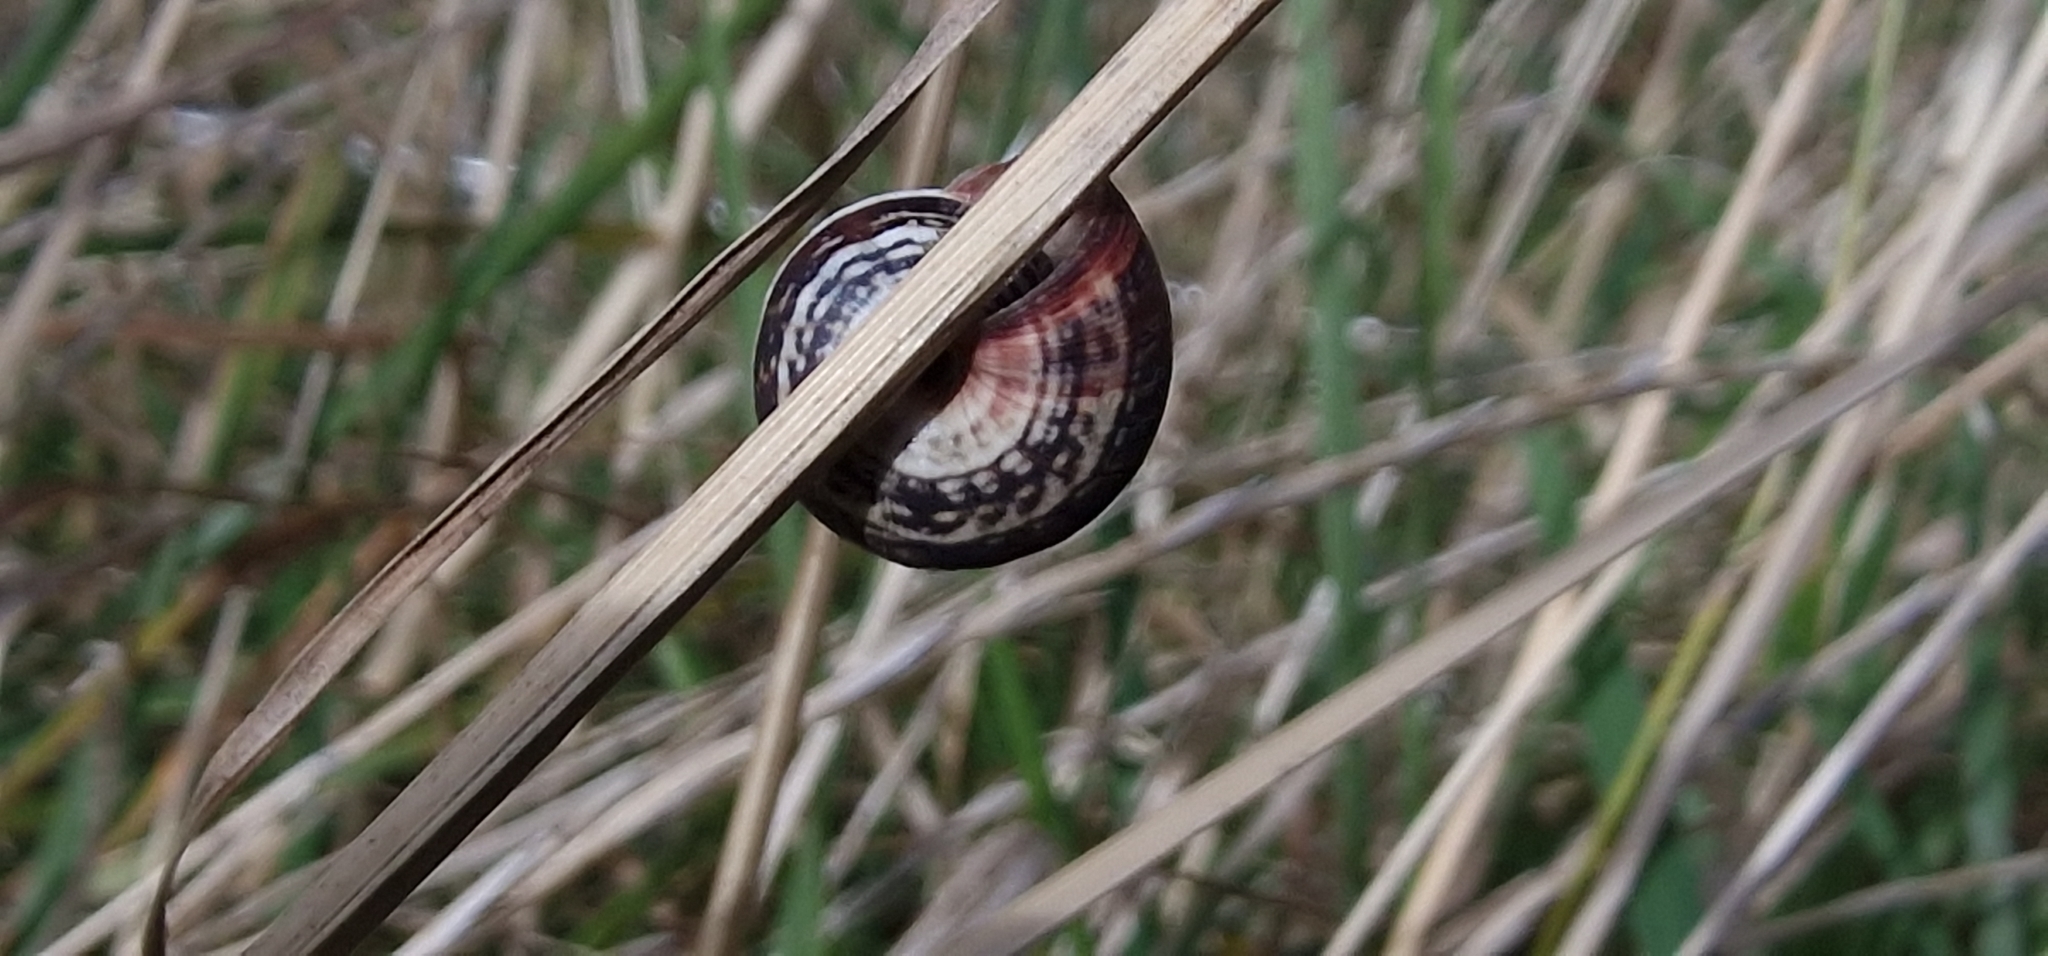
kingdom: Animalia
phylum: Mollusca
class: Gastropoda
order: Stylommatophora
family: Geomitridae
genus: Cernuella
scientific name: Cernuella virgata
